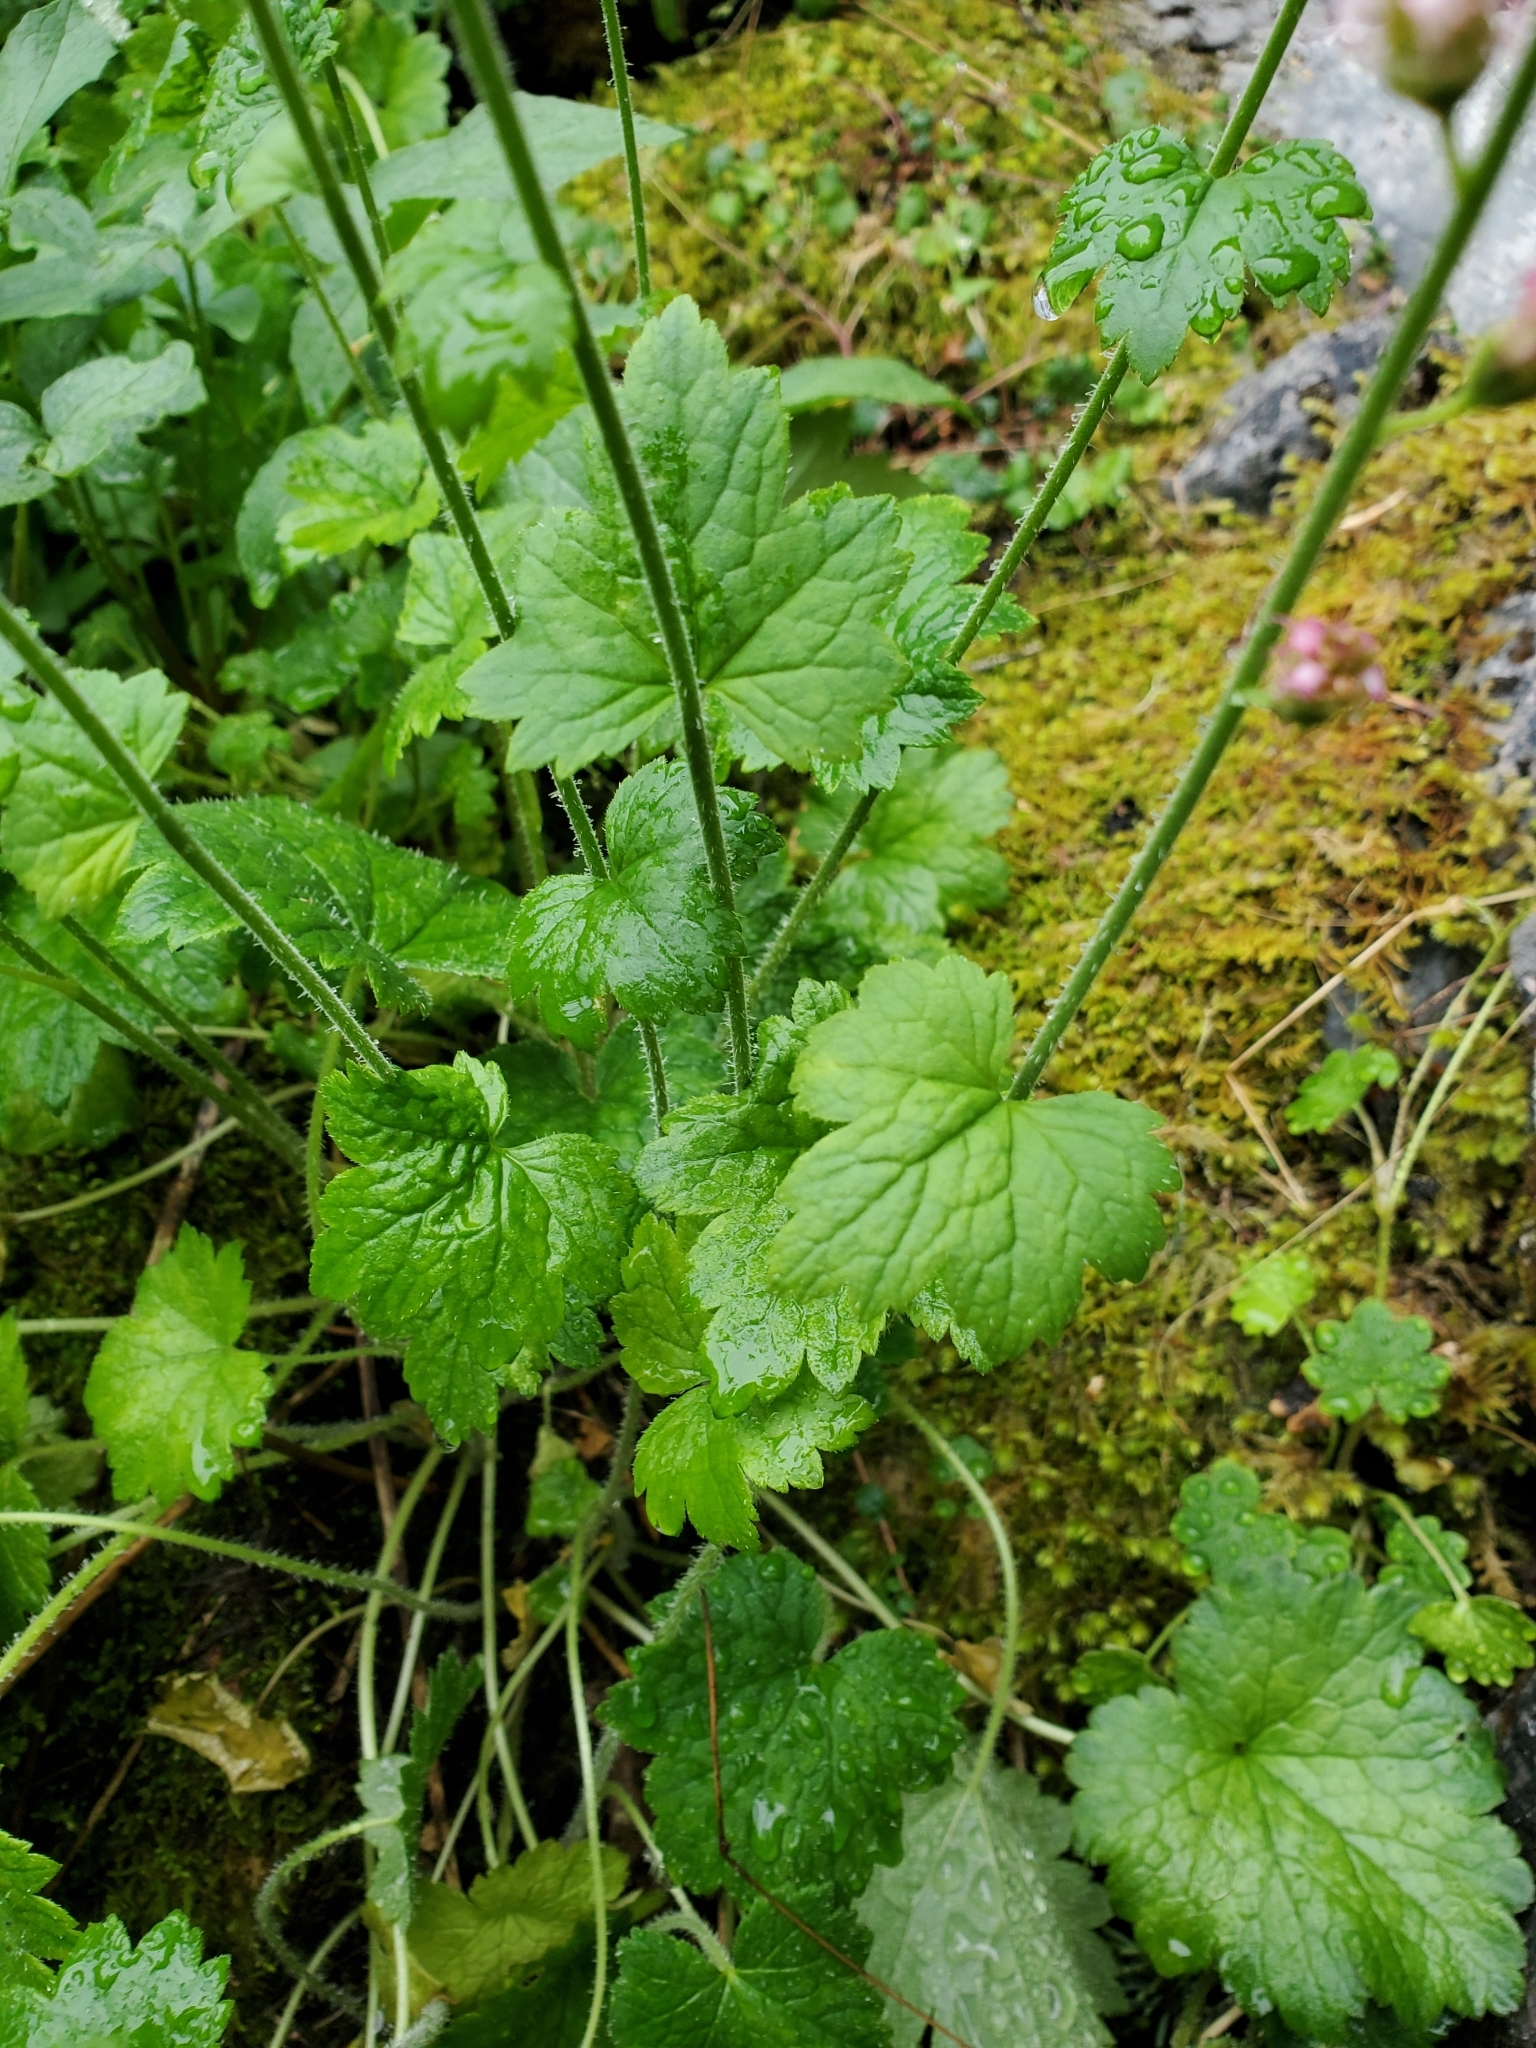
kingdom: Plantae
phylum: Tracheophyta
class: Magnoliopsida
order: Saxifragales
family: Saxifragaceae
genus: Tellima
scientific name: Tellima grandiflora
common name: Fringecups
